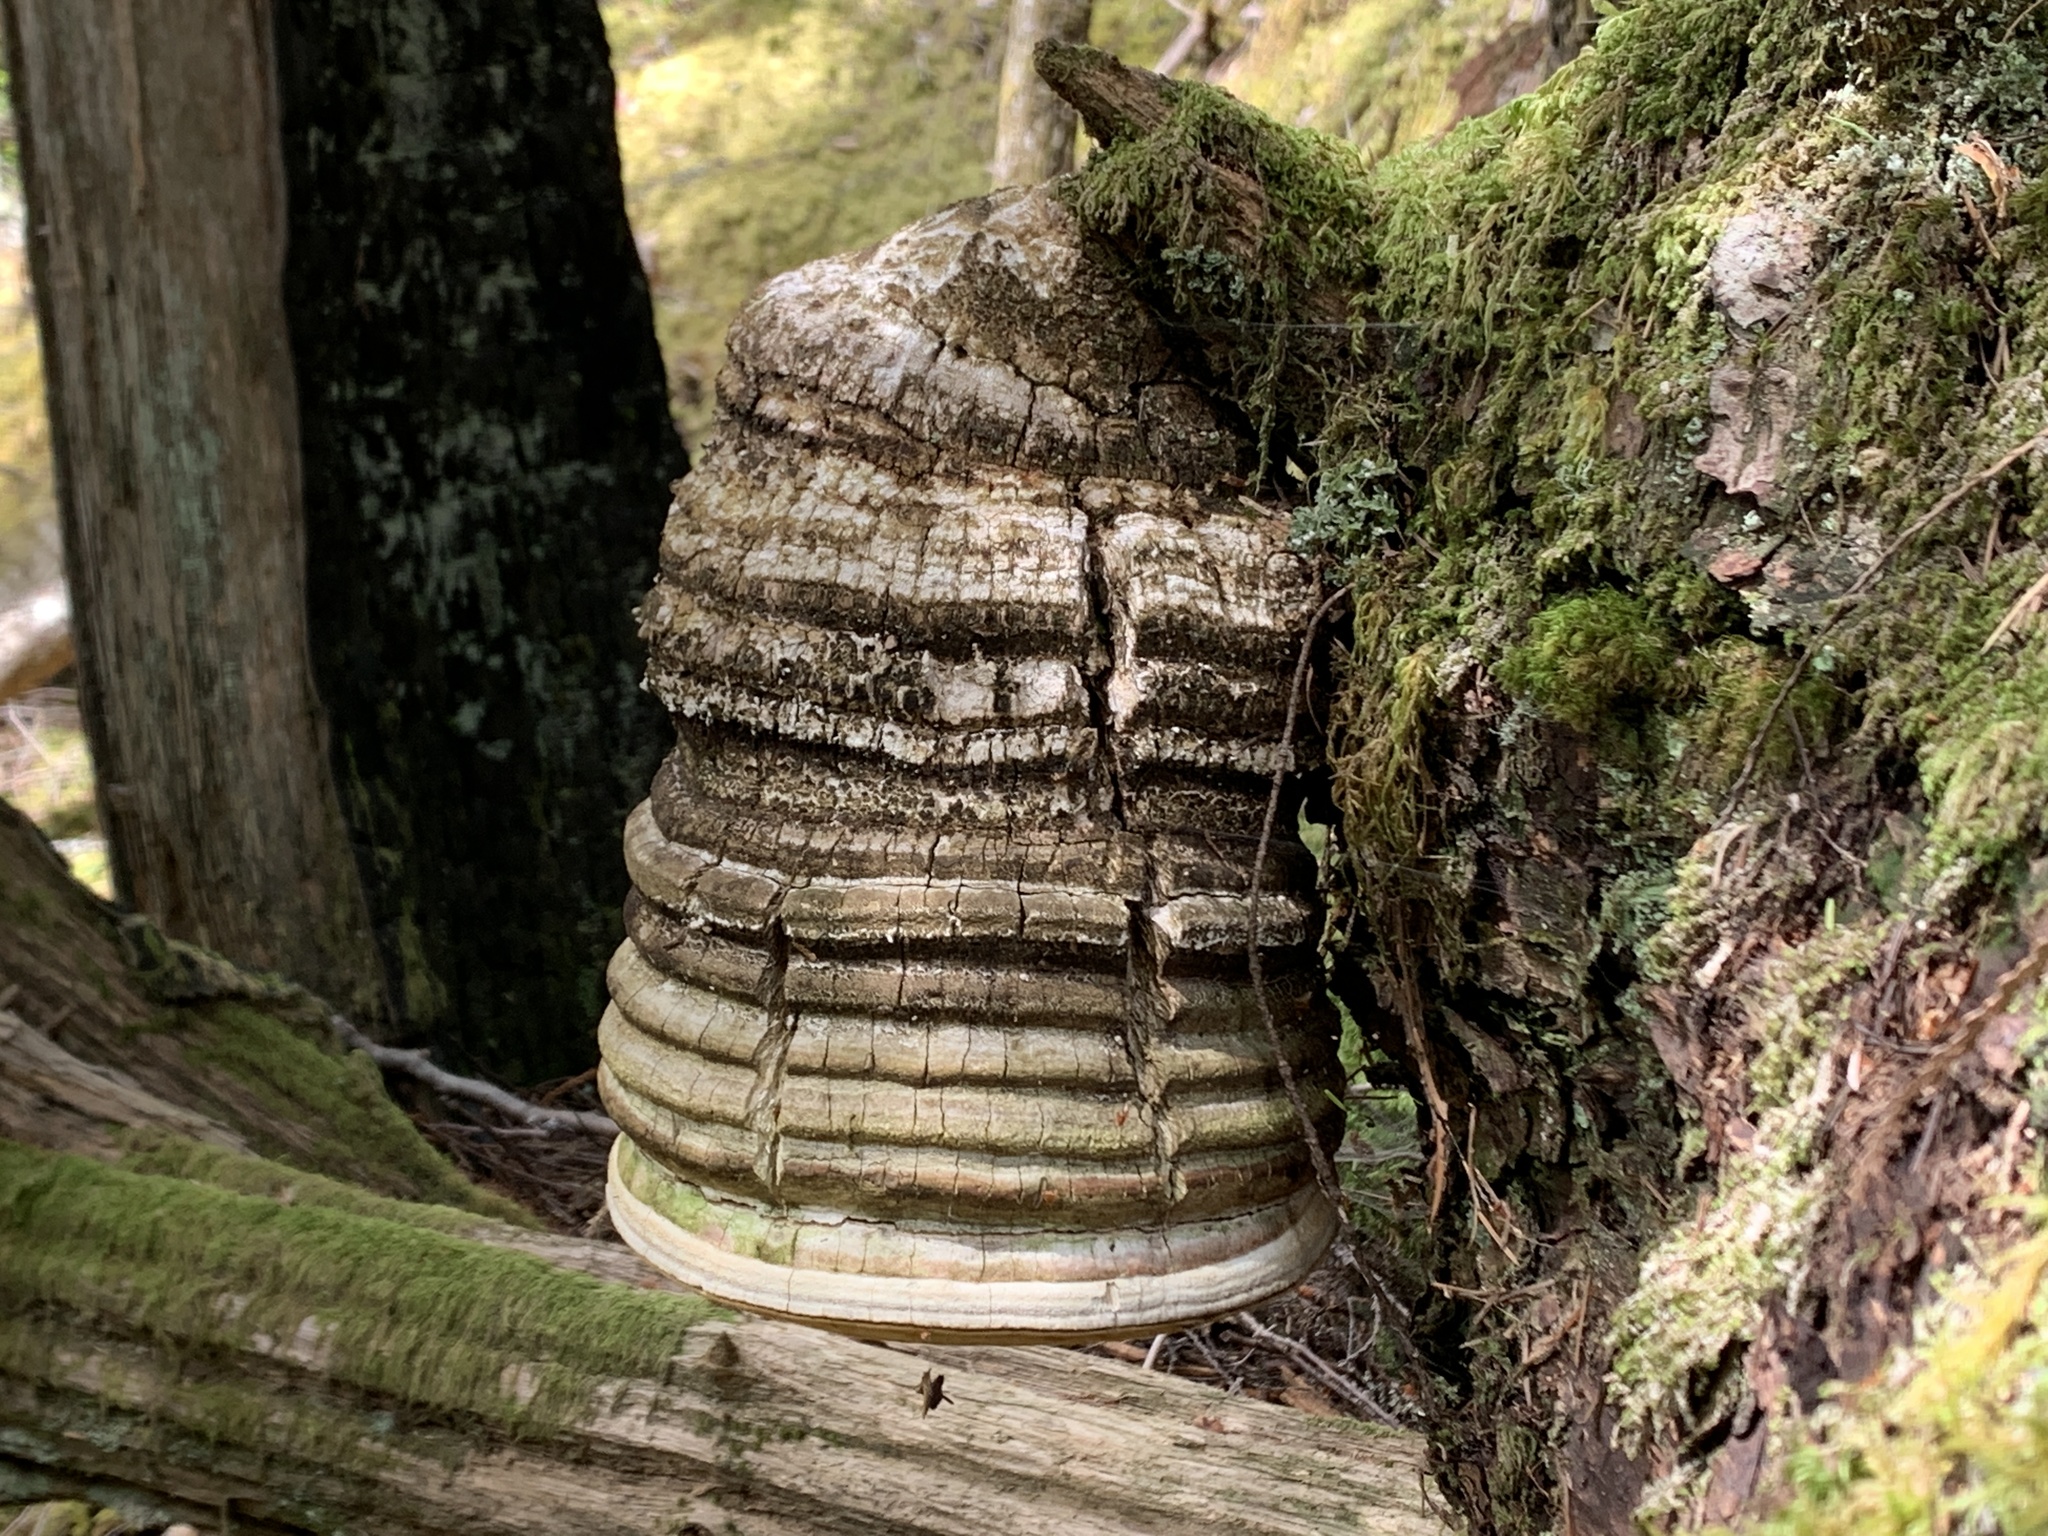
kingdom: Fungi
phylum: Basidiomycota
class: Agaricomycetes
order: Polyporales
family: Fomitopsidaceae
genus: Fomitopsis
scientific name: Fomitopsis officinalis
